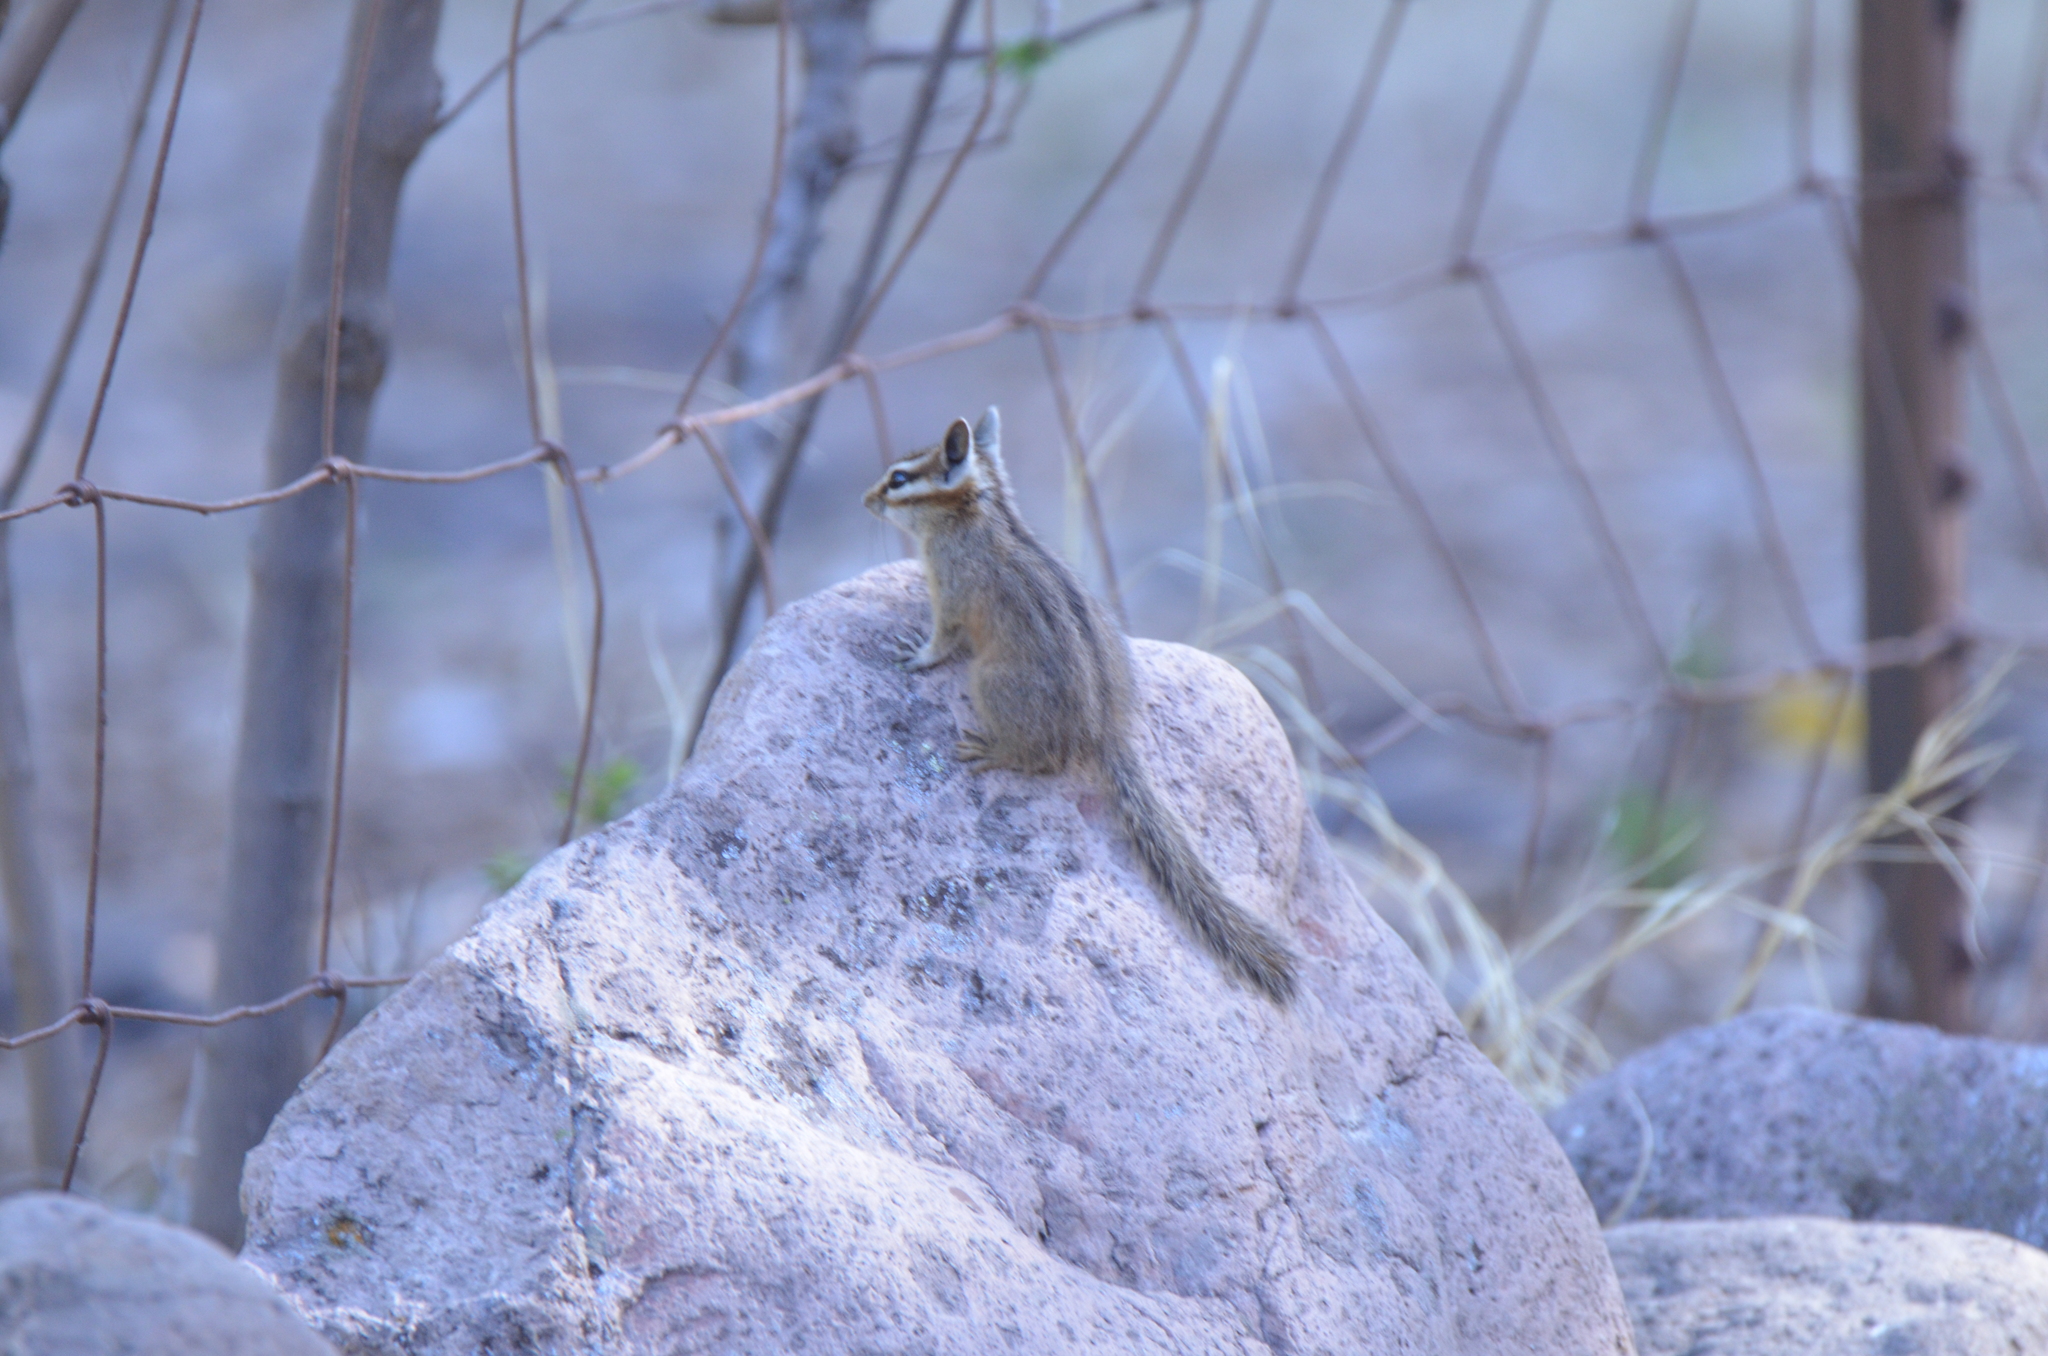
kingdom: Animalia
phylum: Chordata
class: Mammalia
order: Rodentia
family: Sciuridae
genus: Tamias
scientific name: Tamias dorsalis
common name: Cliff chipmunk
